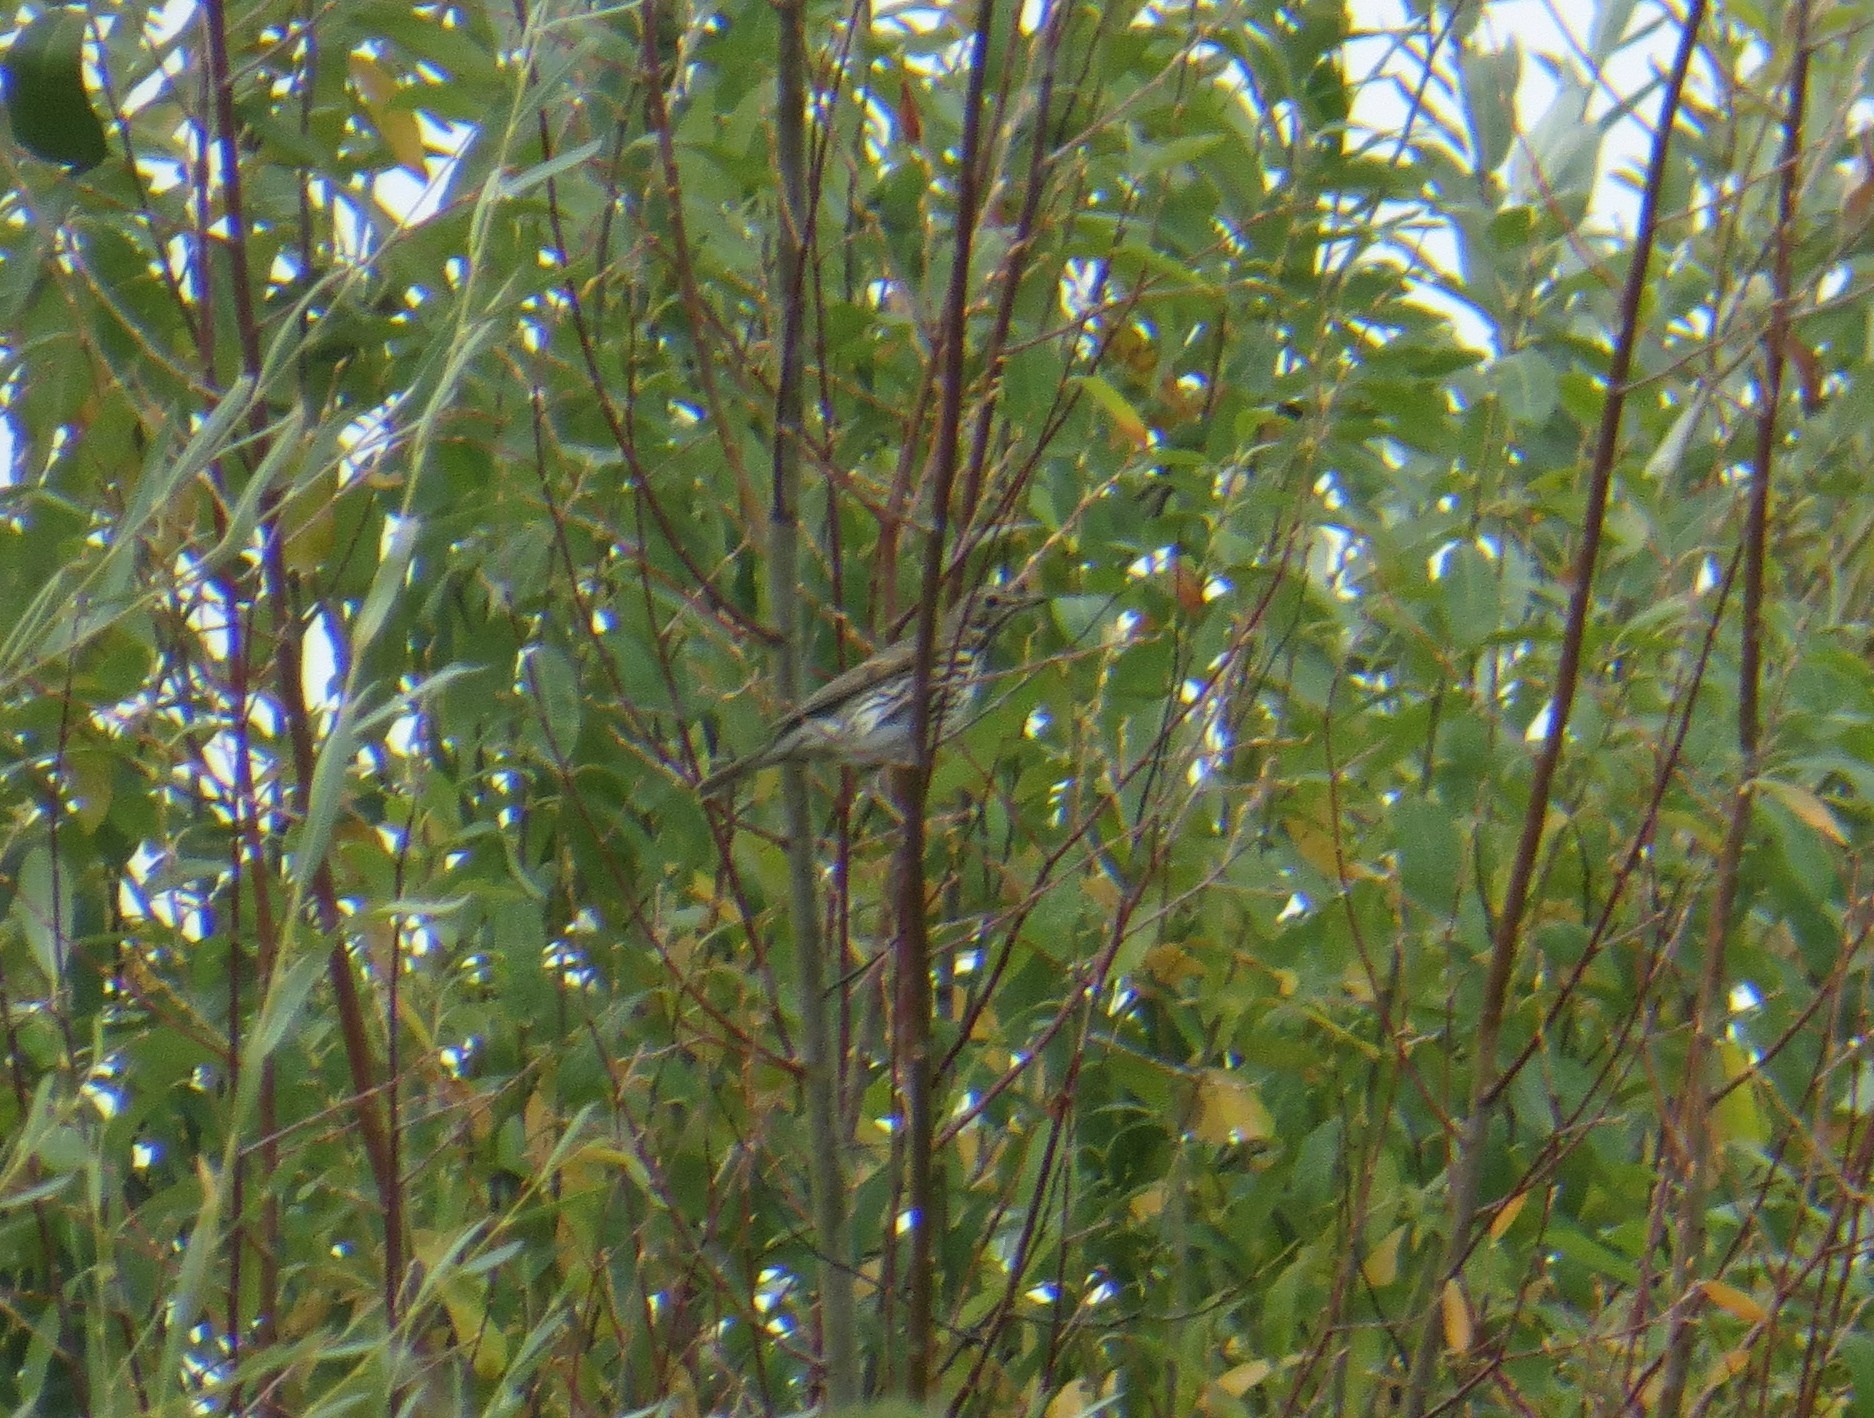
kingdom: Animalia
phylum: Chordata
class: Aves
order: Passeriformes
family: Turdidae
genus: Turdus
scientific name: Turdus philomelos
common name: Song thrush
